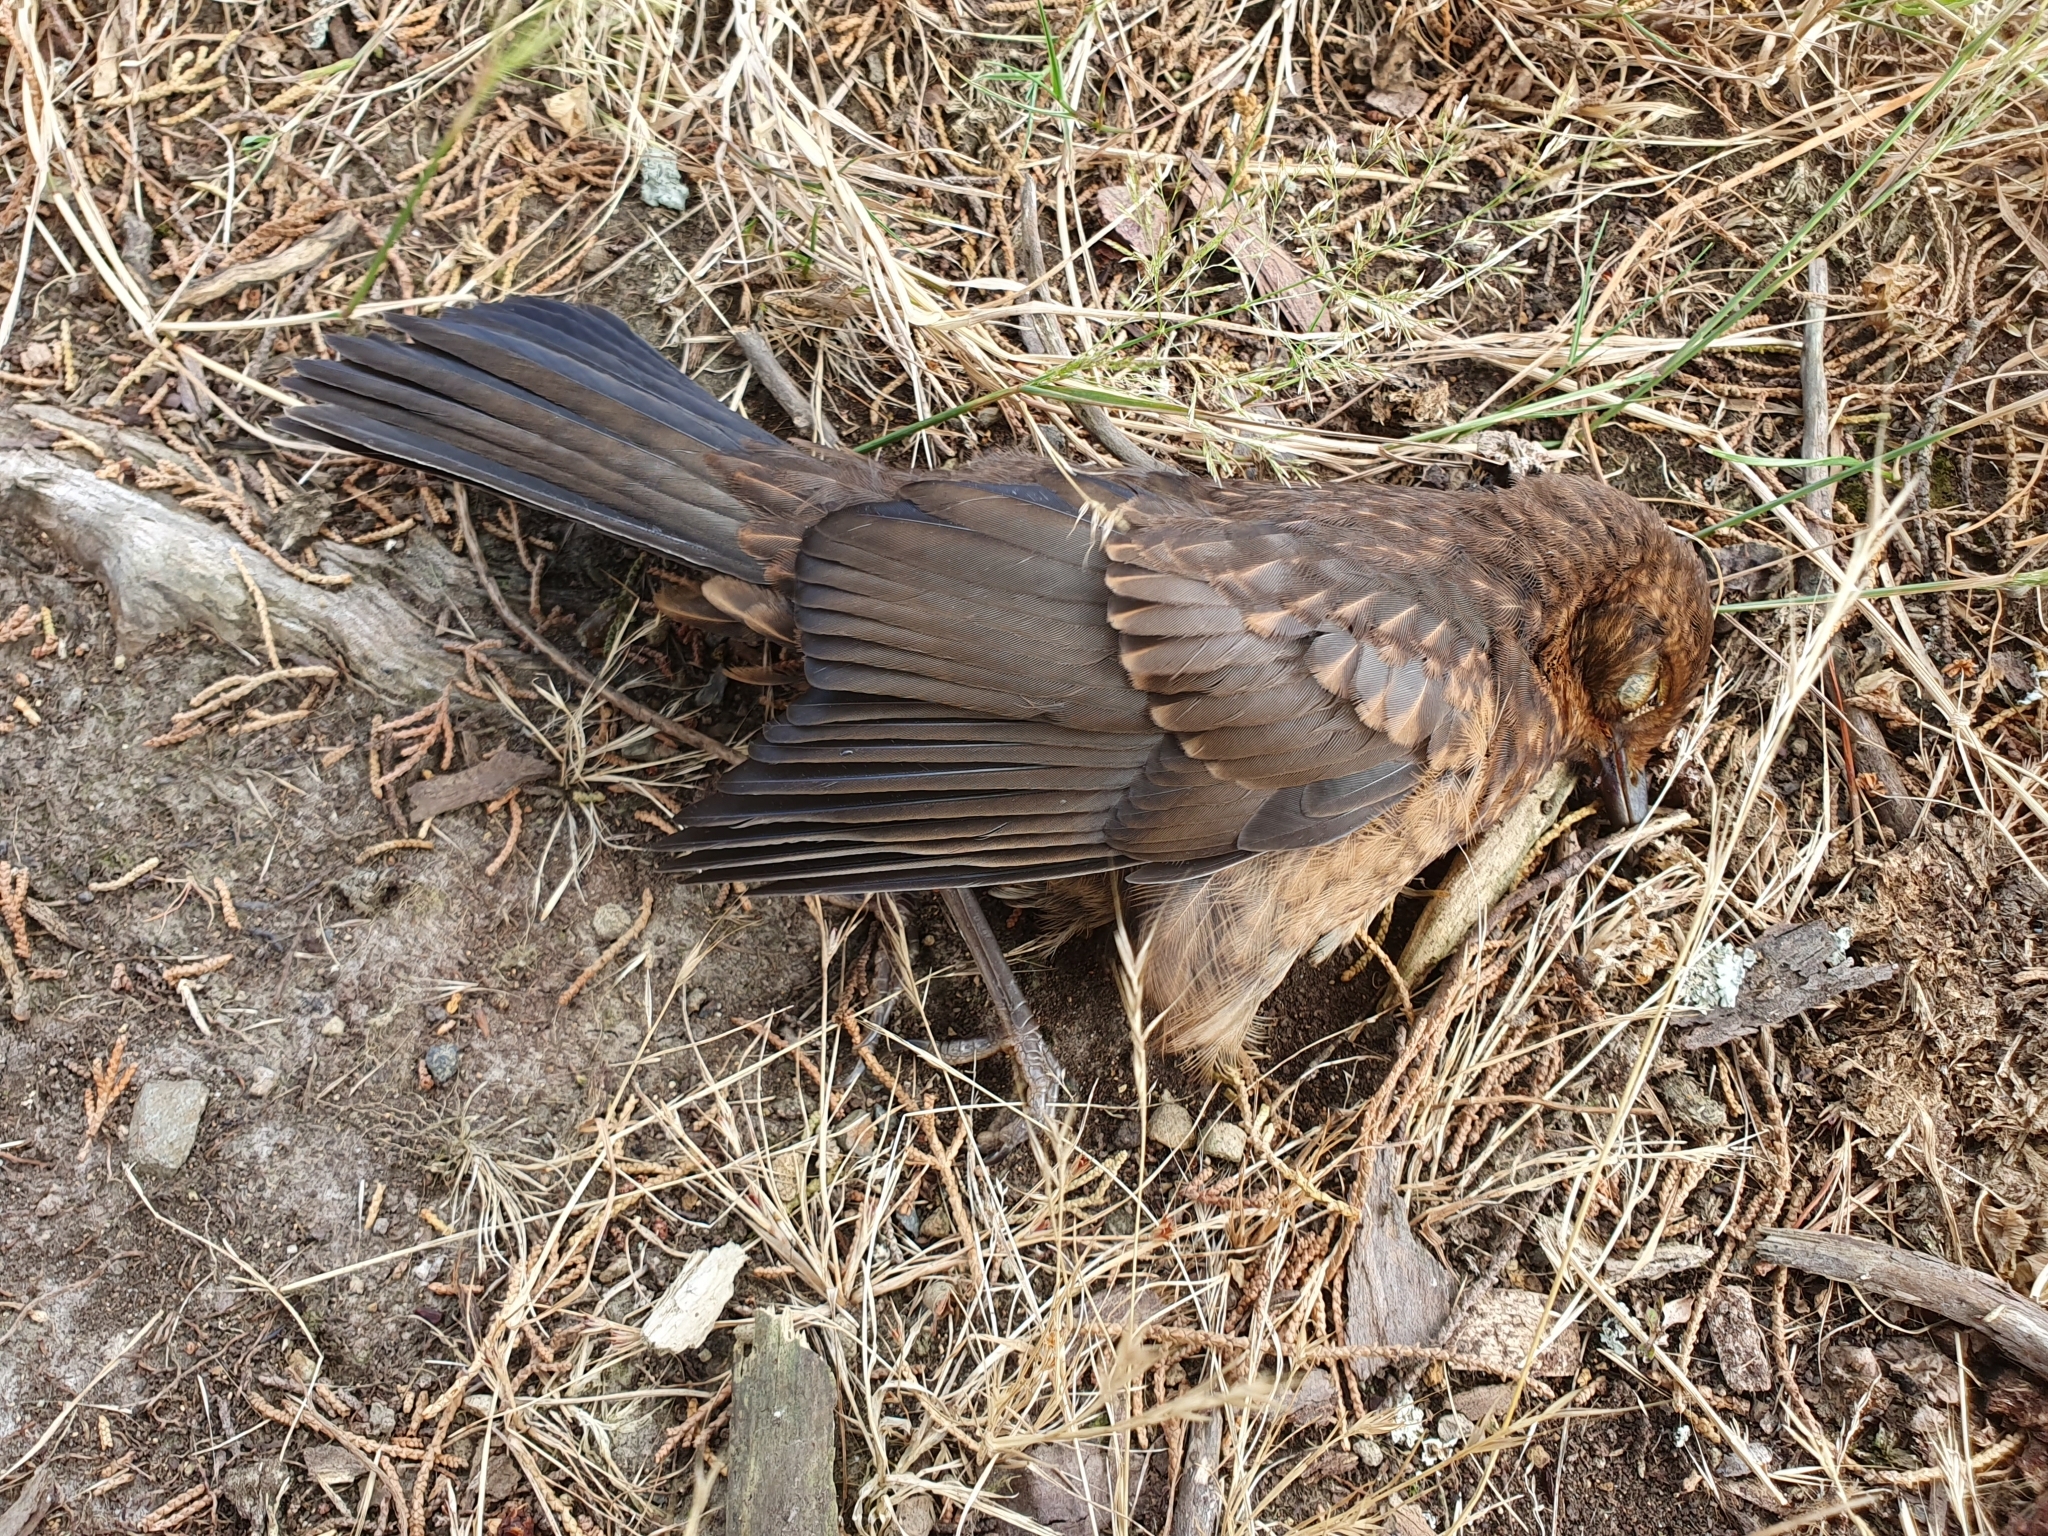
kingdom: Animalia
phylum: Chordata
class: Aves
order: Passeriformes
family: Turdidae
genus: Turdus
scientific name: Turdus merula
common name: Common blackbird
